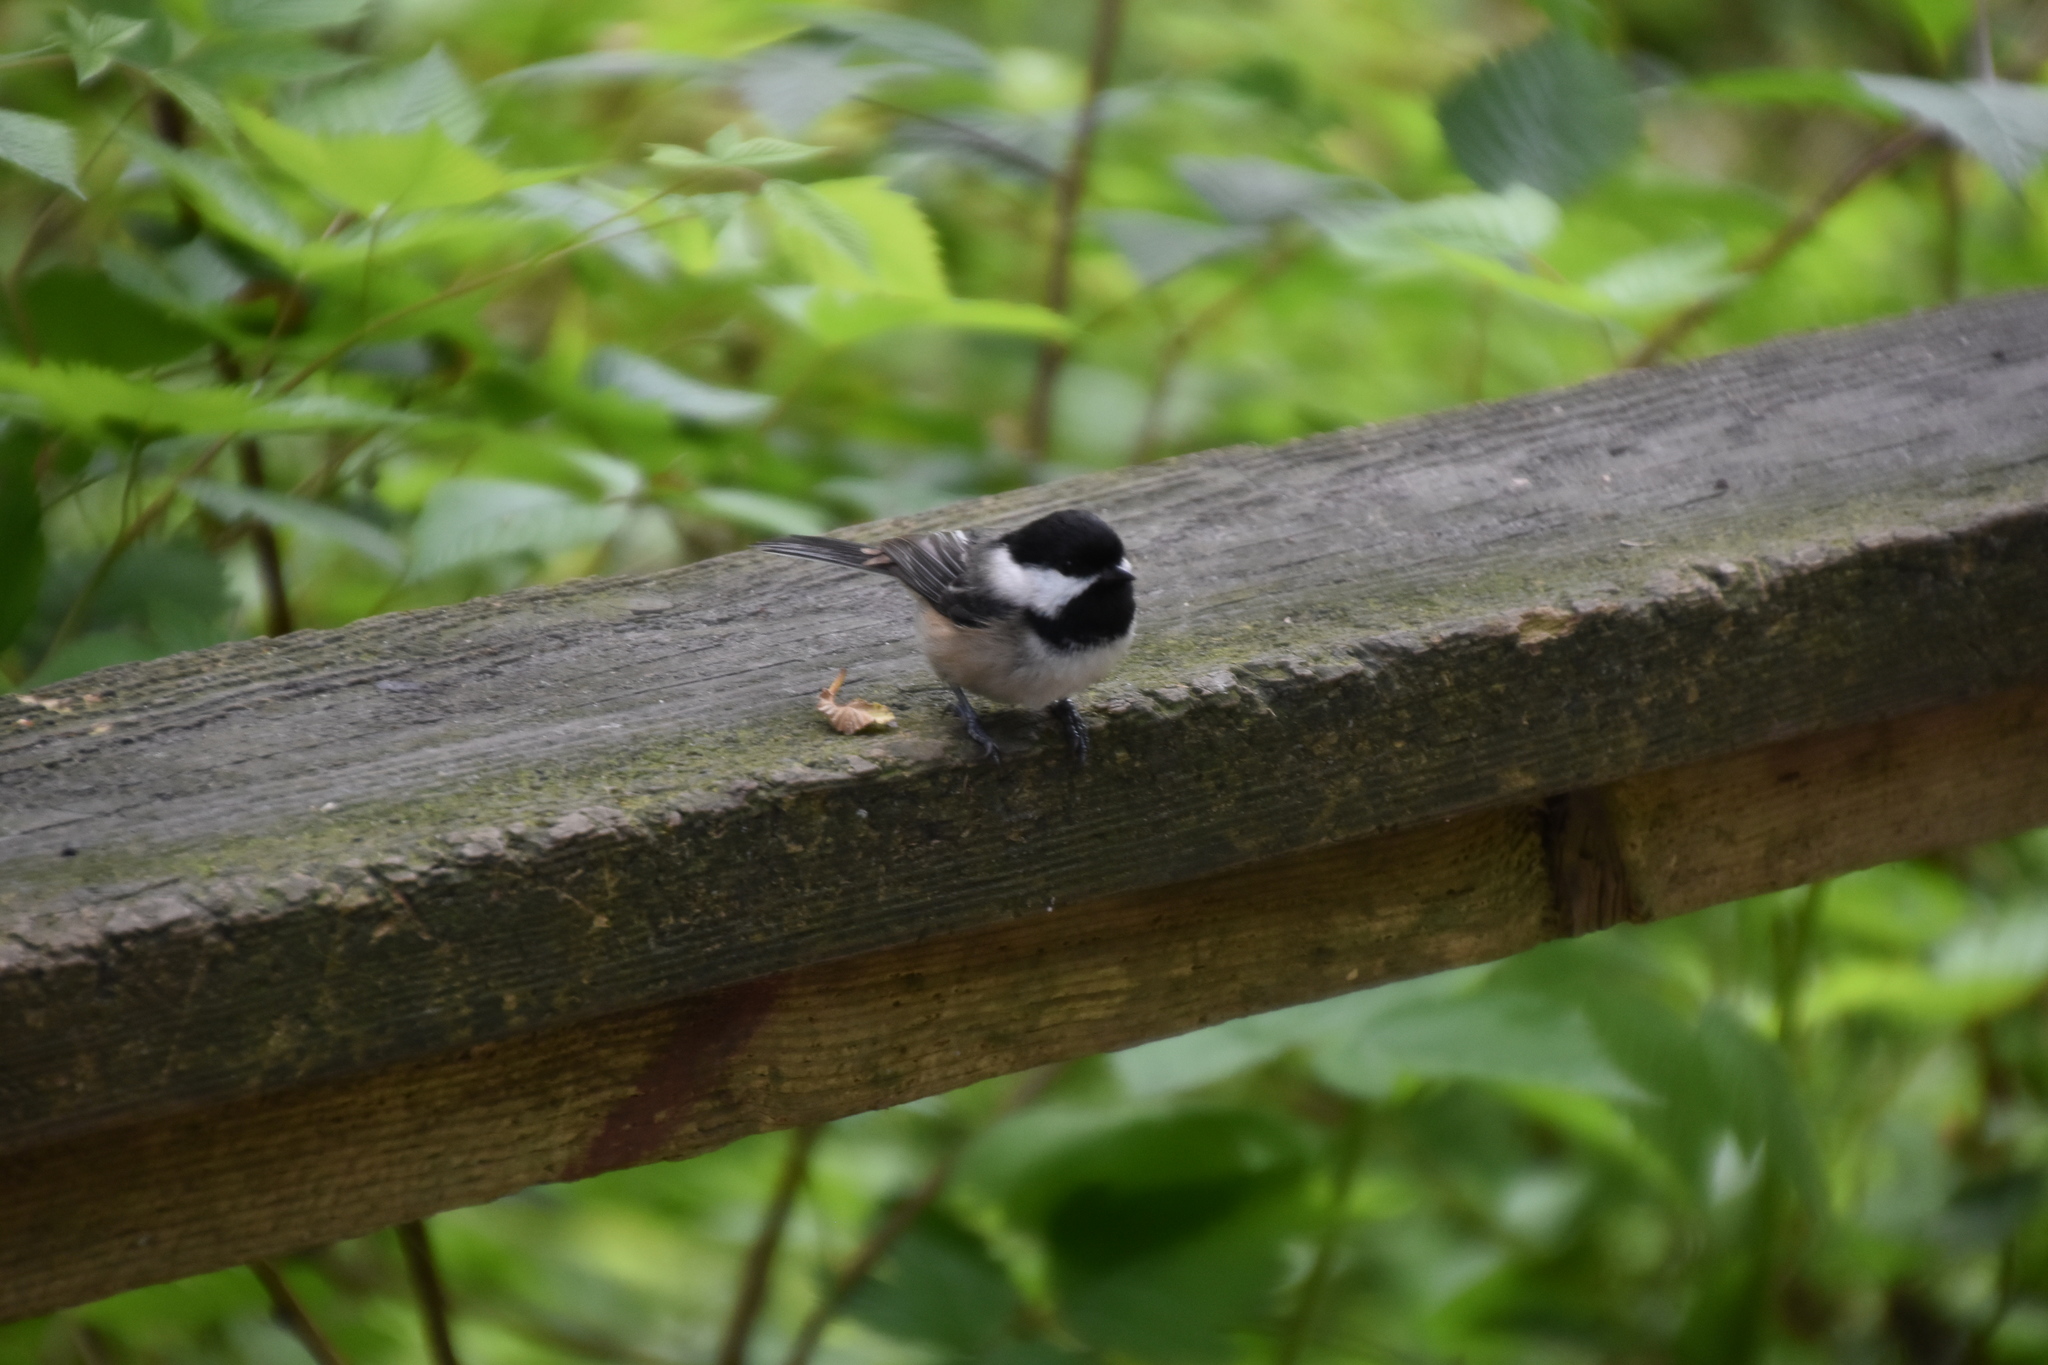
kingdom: Animalia
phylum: Chordata
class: Aves
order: Passeriformes
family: Paridae
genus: Poecile
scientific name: Poecile atricapillus
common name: Black-capped chickadee
